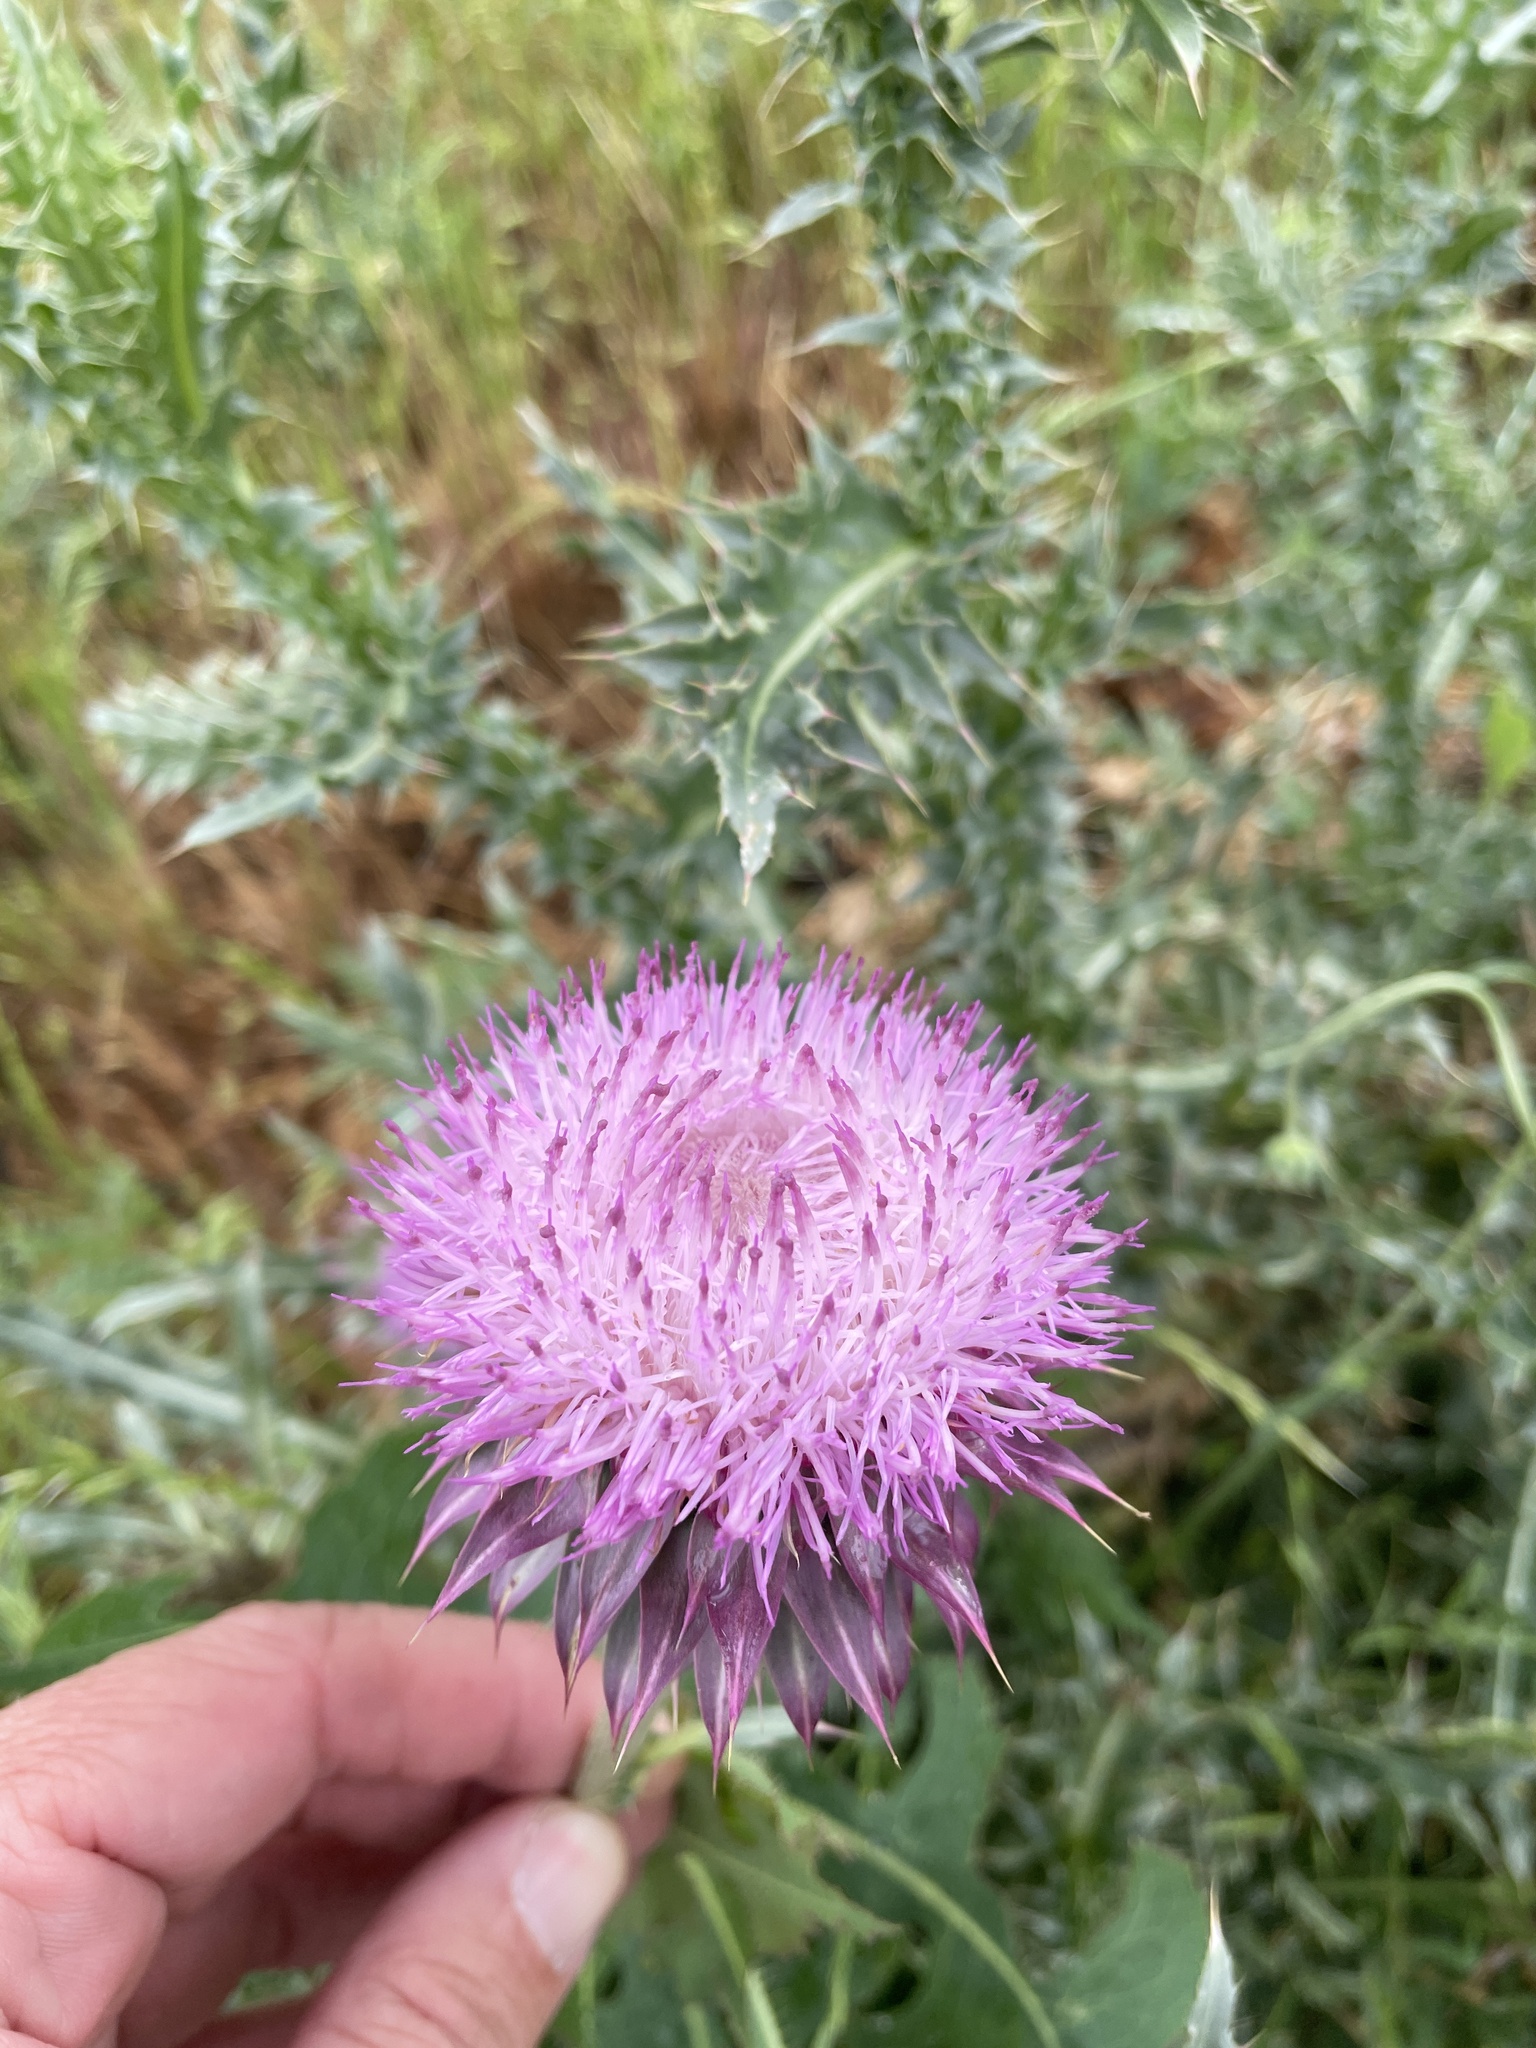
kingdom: Plantae
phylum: Tracheophyta
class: Magnoliopsida
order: Asterales
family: Asteraceae
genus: Carduus
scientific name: Carduus nutans
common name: Musk thistle
